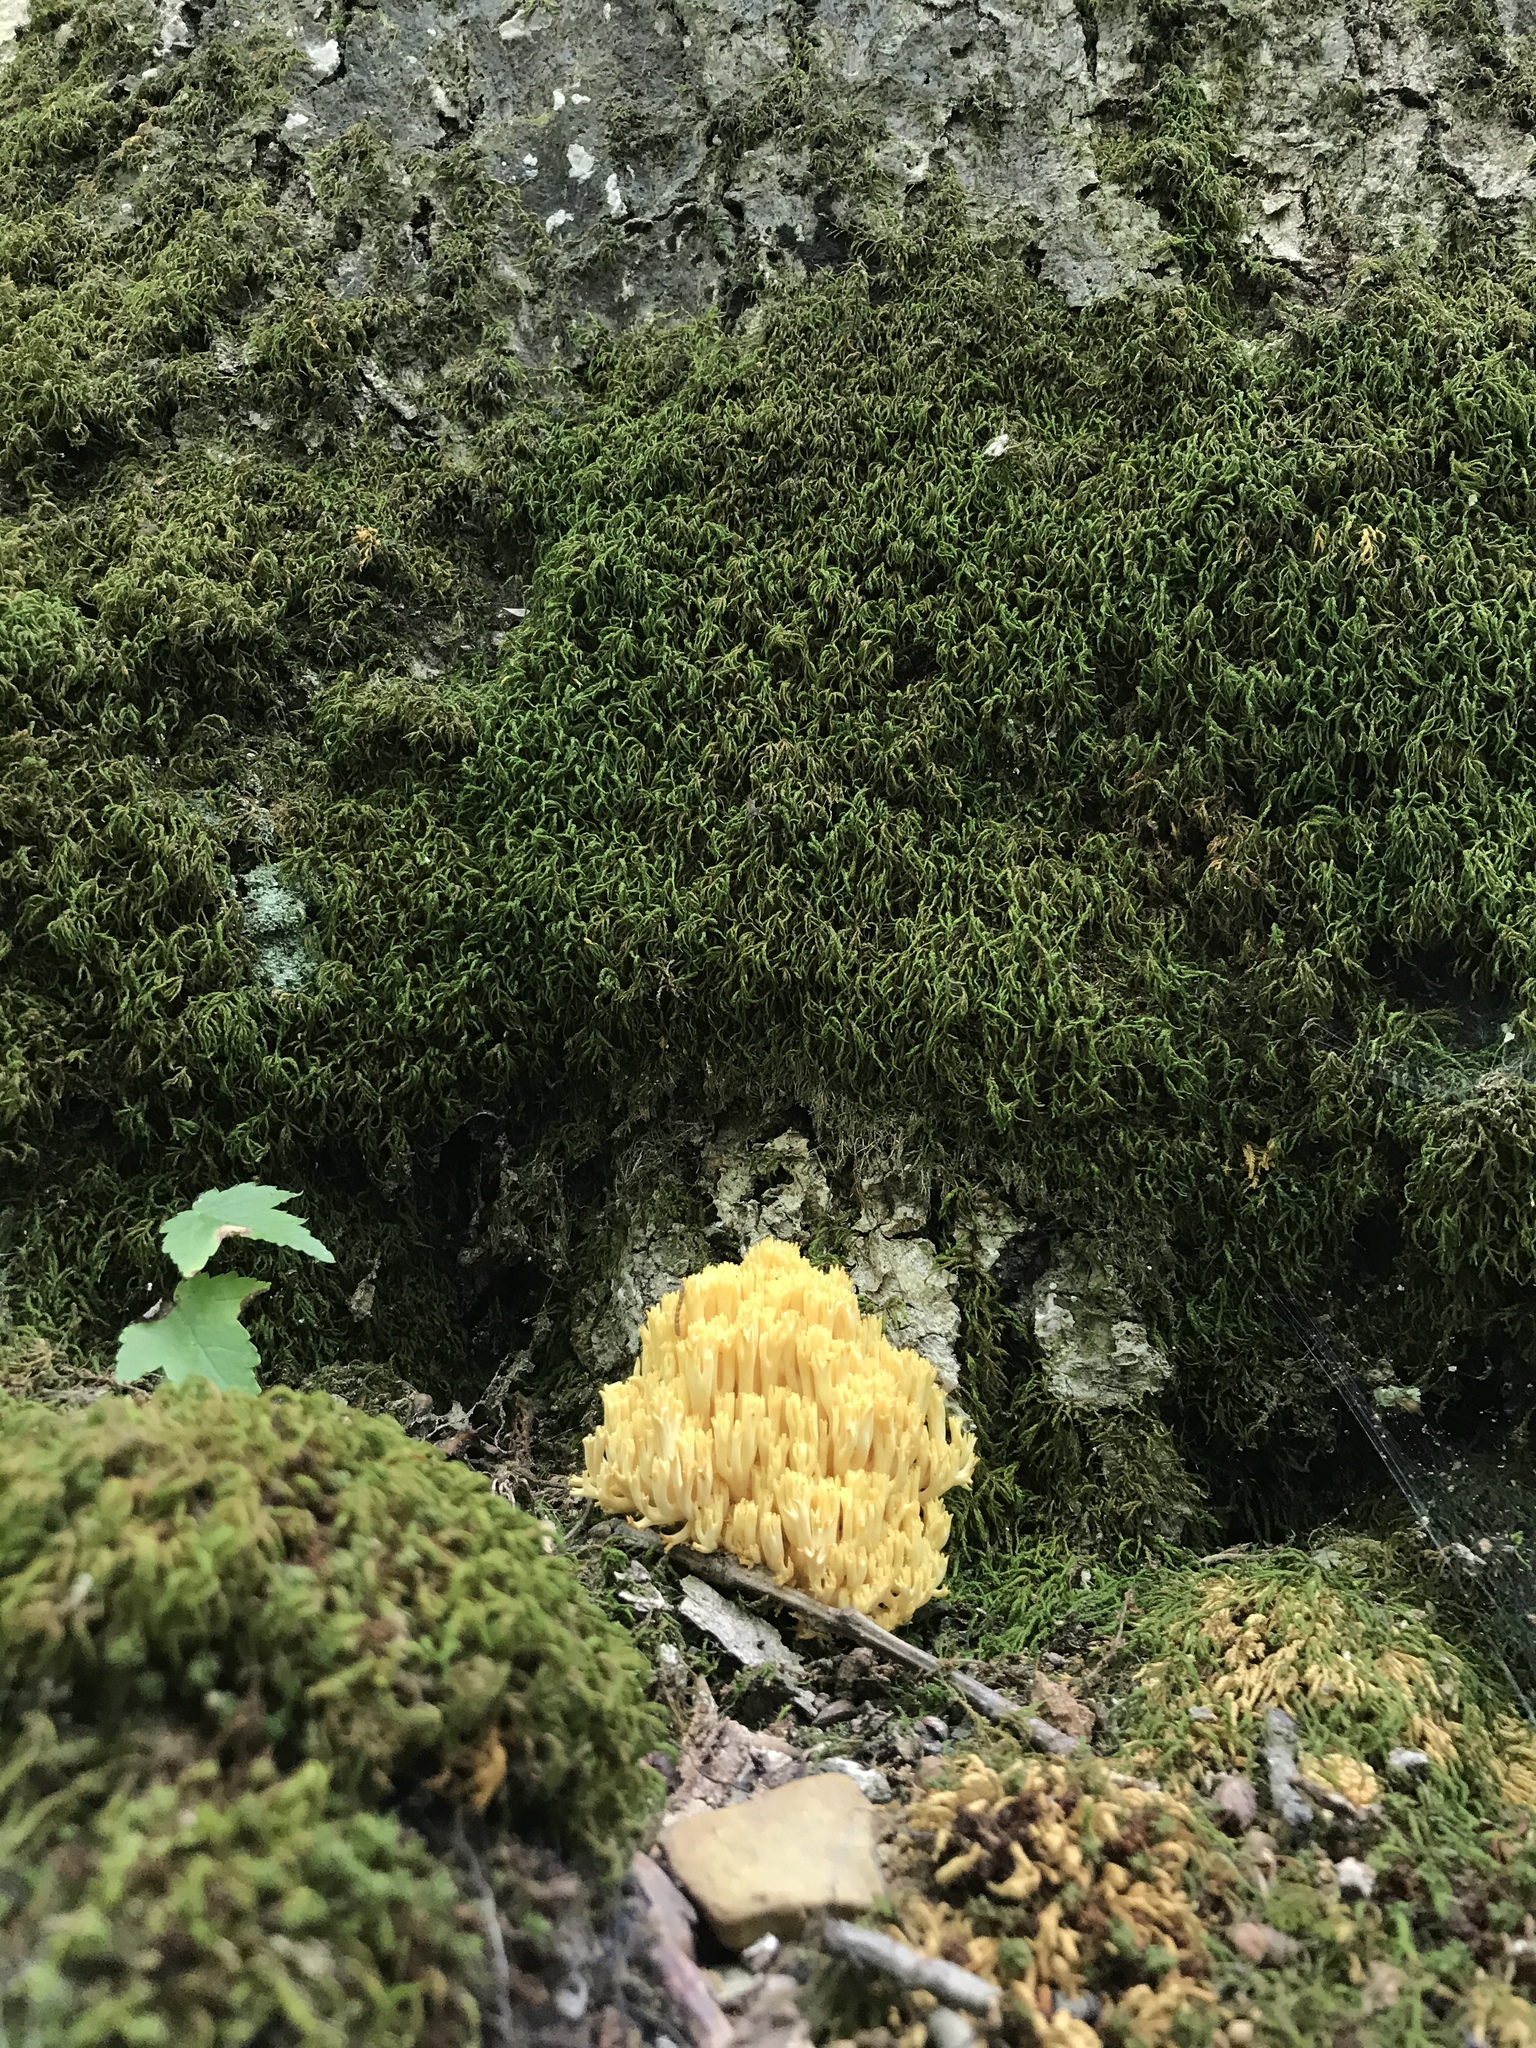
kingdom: Fungi
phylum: Basidiomycota
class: Agaricomycetes
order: Gomphales
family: Gomphaceae
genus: Ramaria
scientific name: Ramaria caulifloriformis
